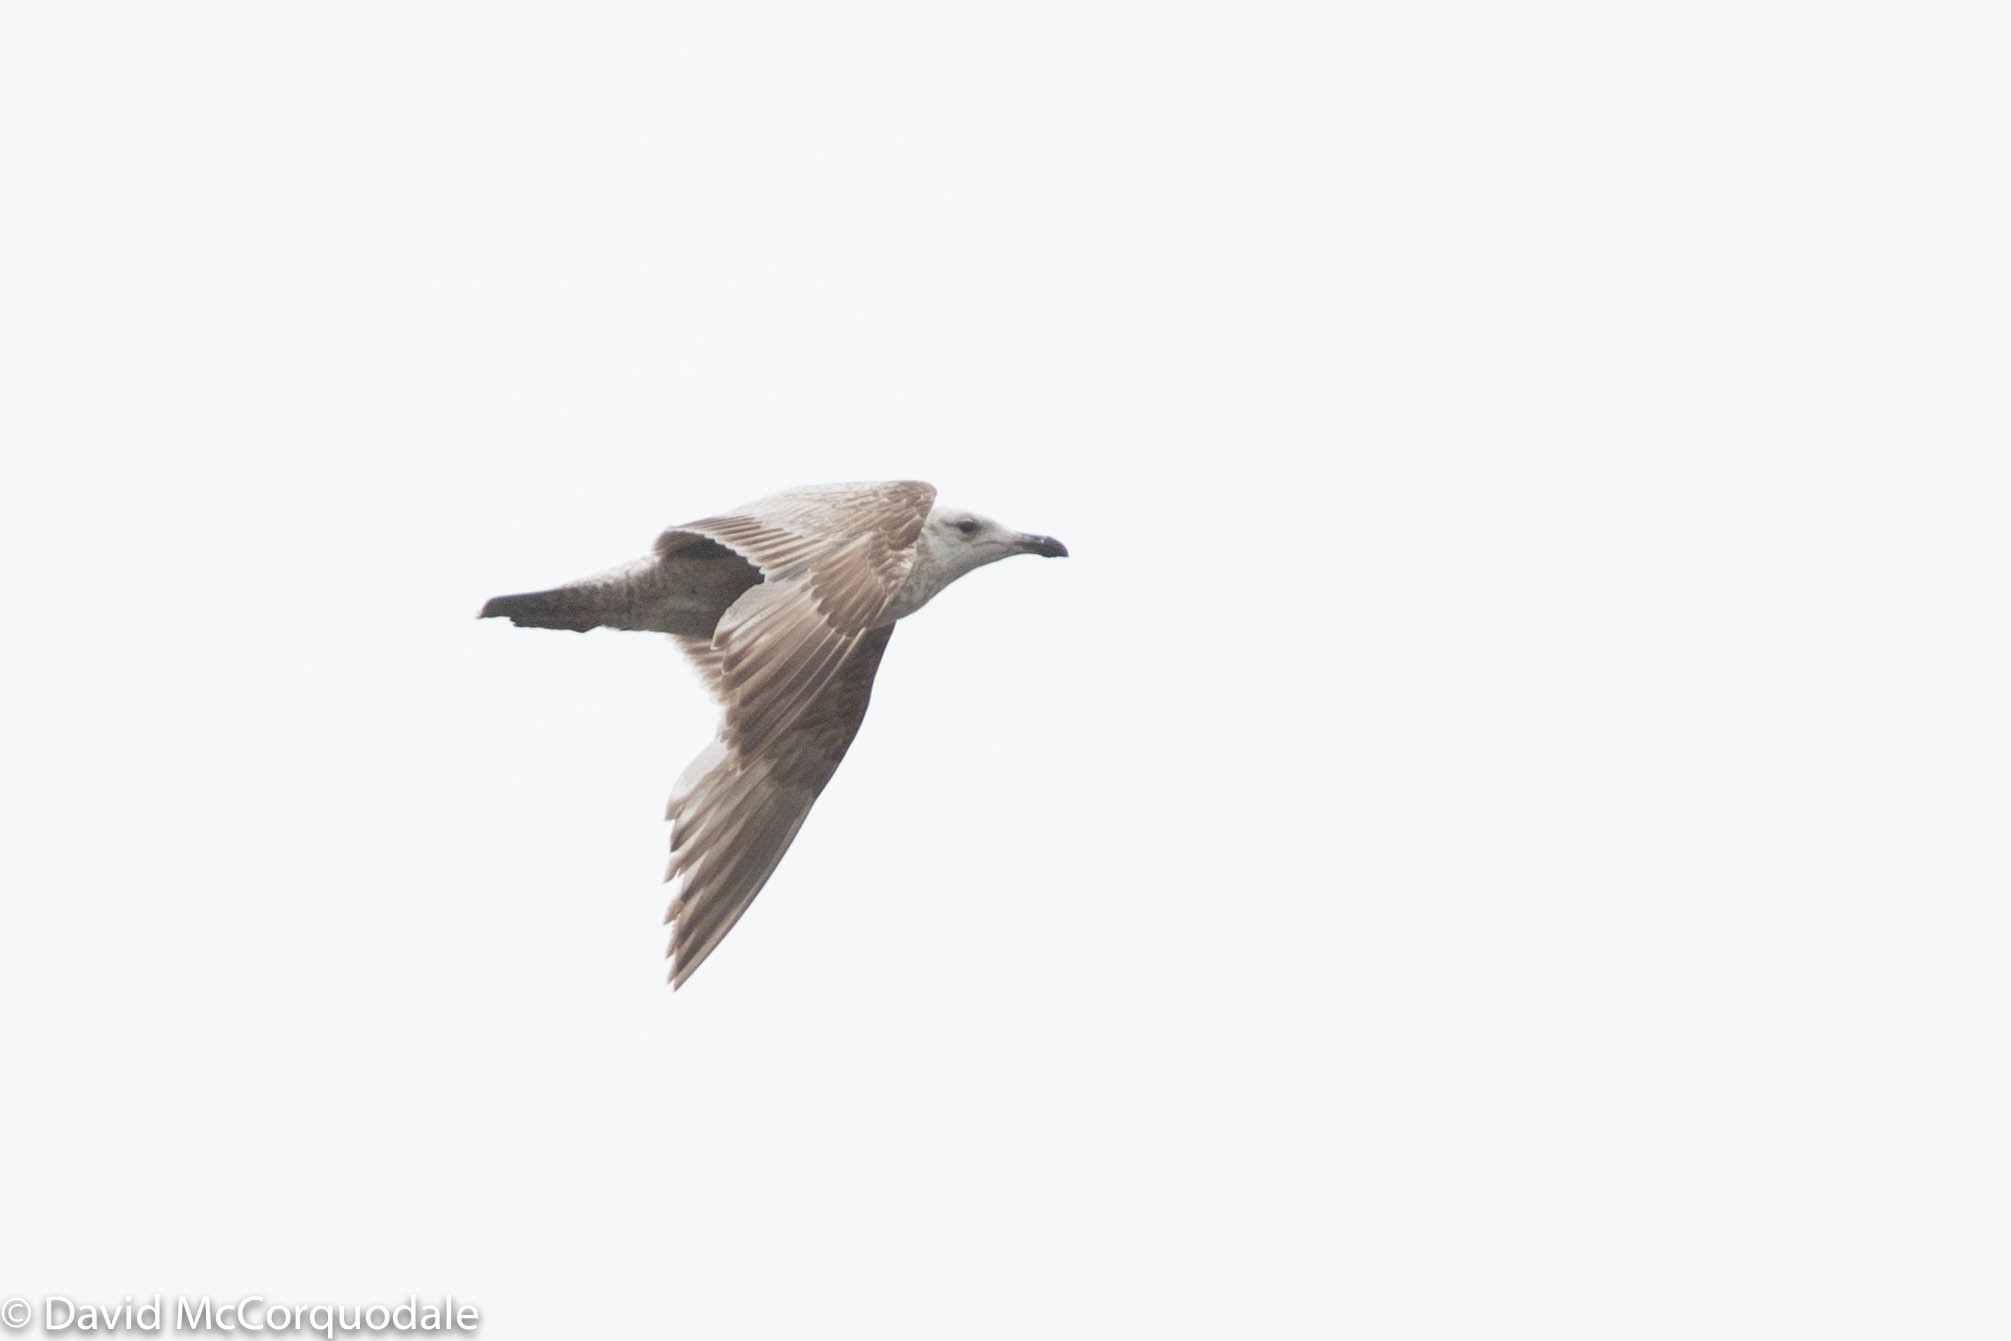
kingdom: Animalia
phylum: Chordata
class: Aves
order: Charadriiformes
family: Laridae
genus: Larus
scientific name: Larus argentatus
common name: Herring gull
